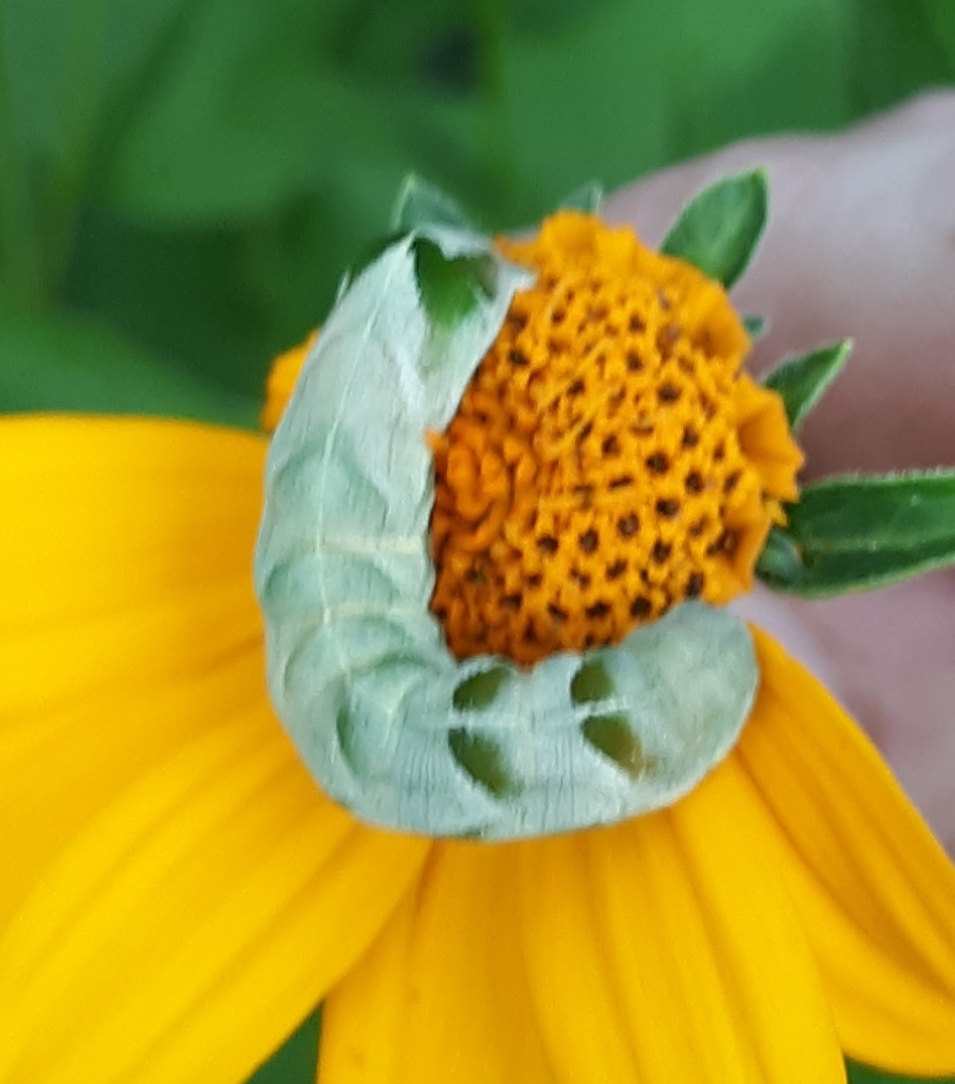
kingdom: Animalia
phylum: Arthropoda
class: Insecta
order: Lepidoptera
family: Noctuidae
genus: Melanchra
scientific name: Melanchra adjuncta
